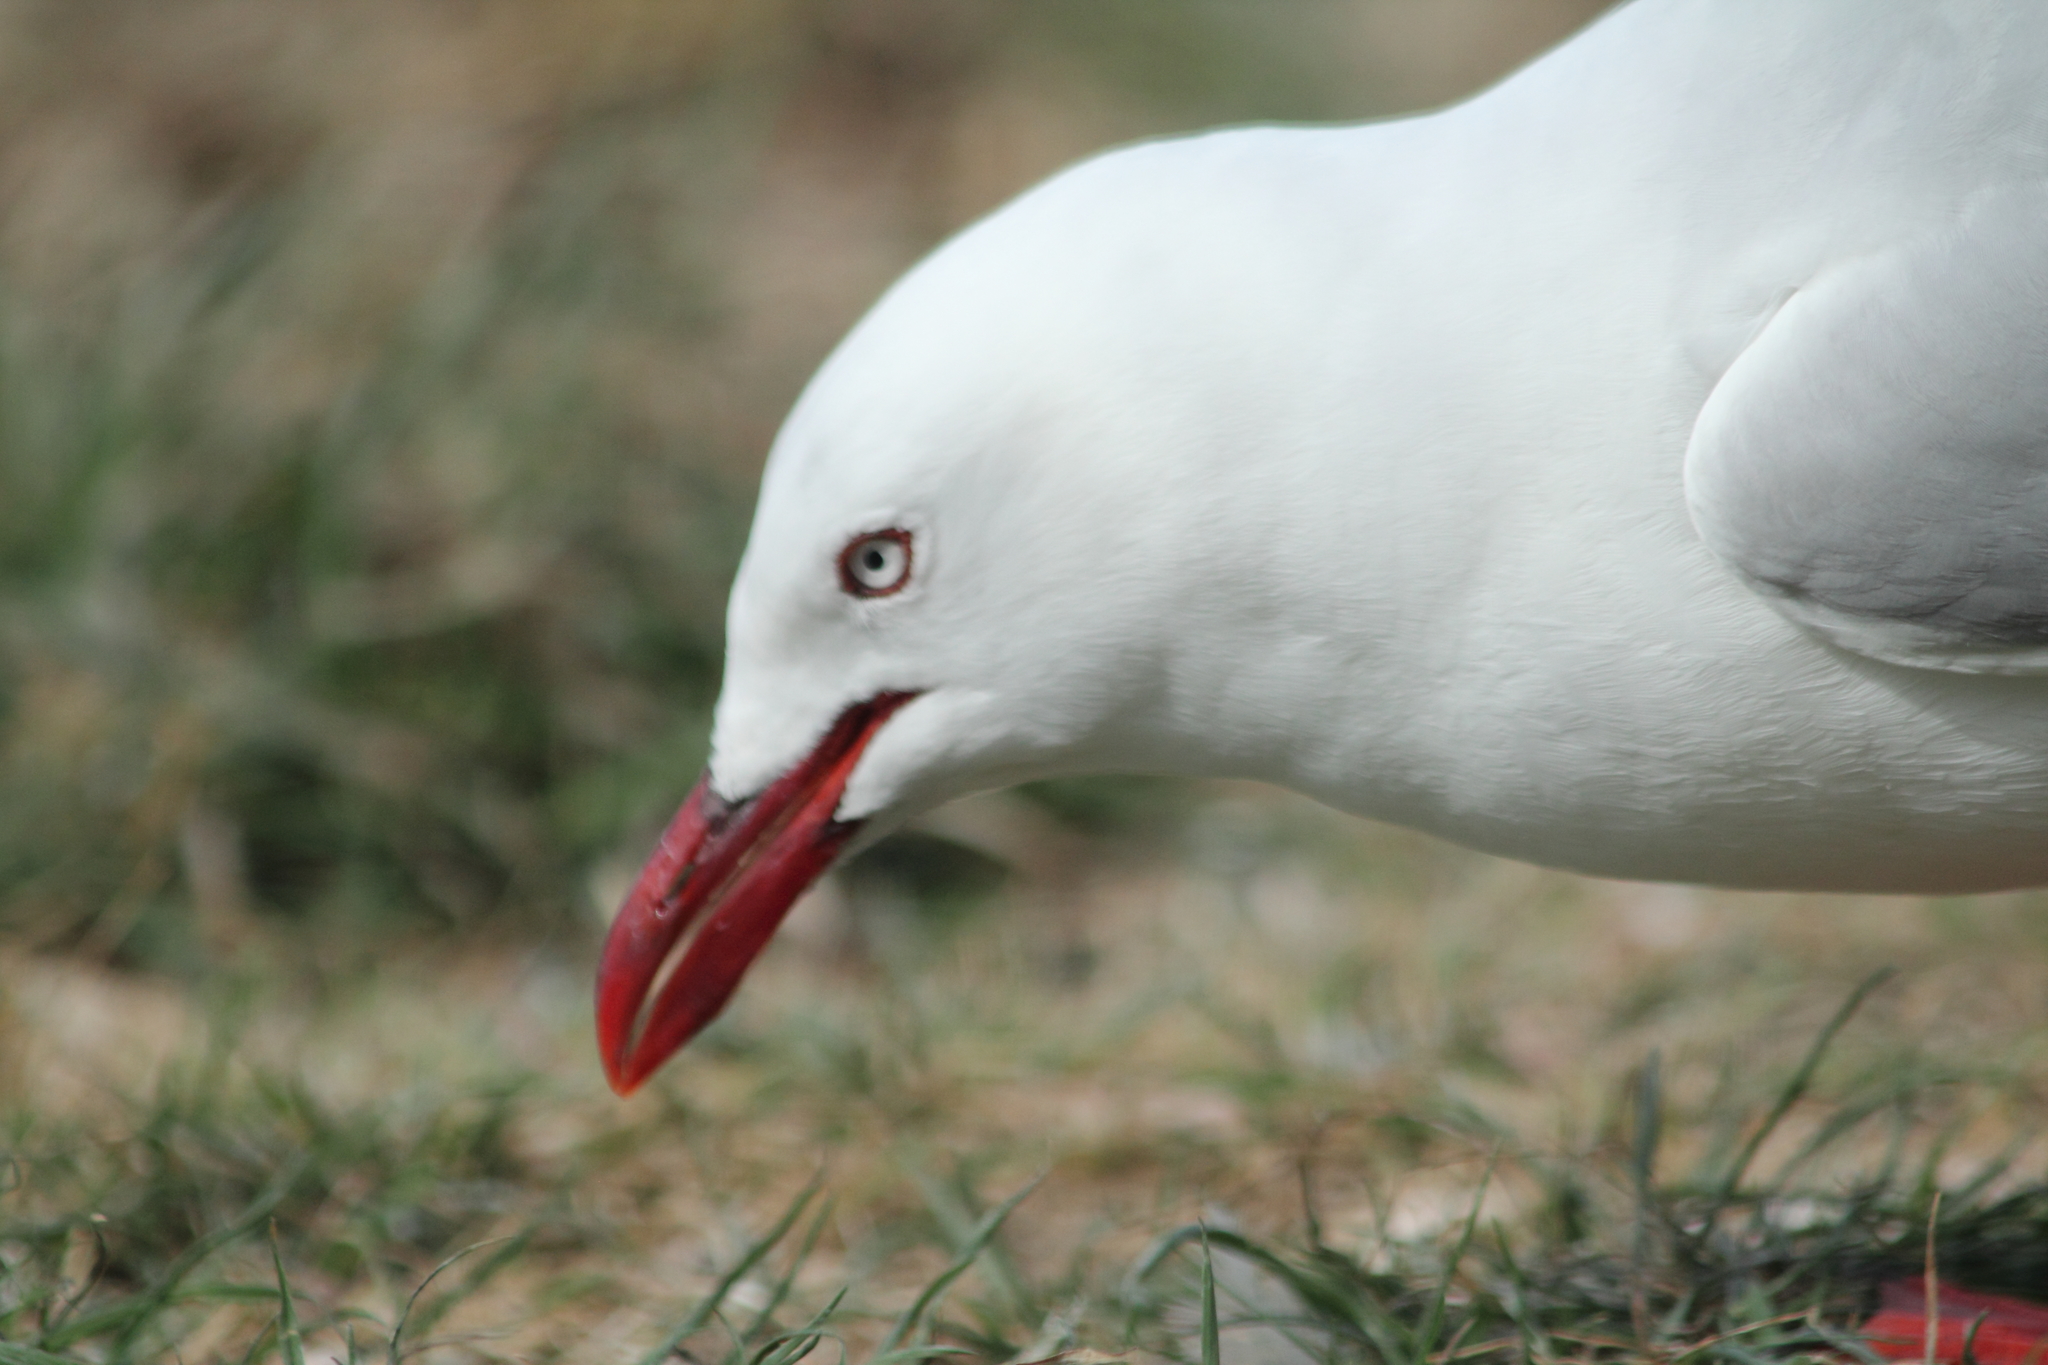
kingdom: Animalia
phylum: Chordata
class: Aves
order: Charadriiformes
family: Laridae
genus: Chroicocephalus
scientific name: Chroicocephalus novaehollandiae
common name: Silver gull
